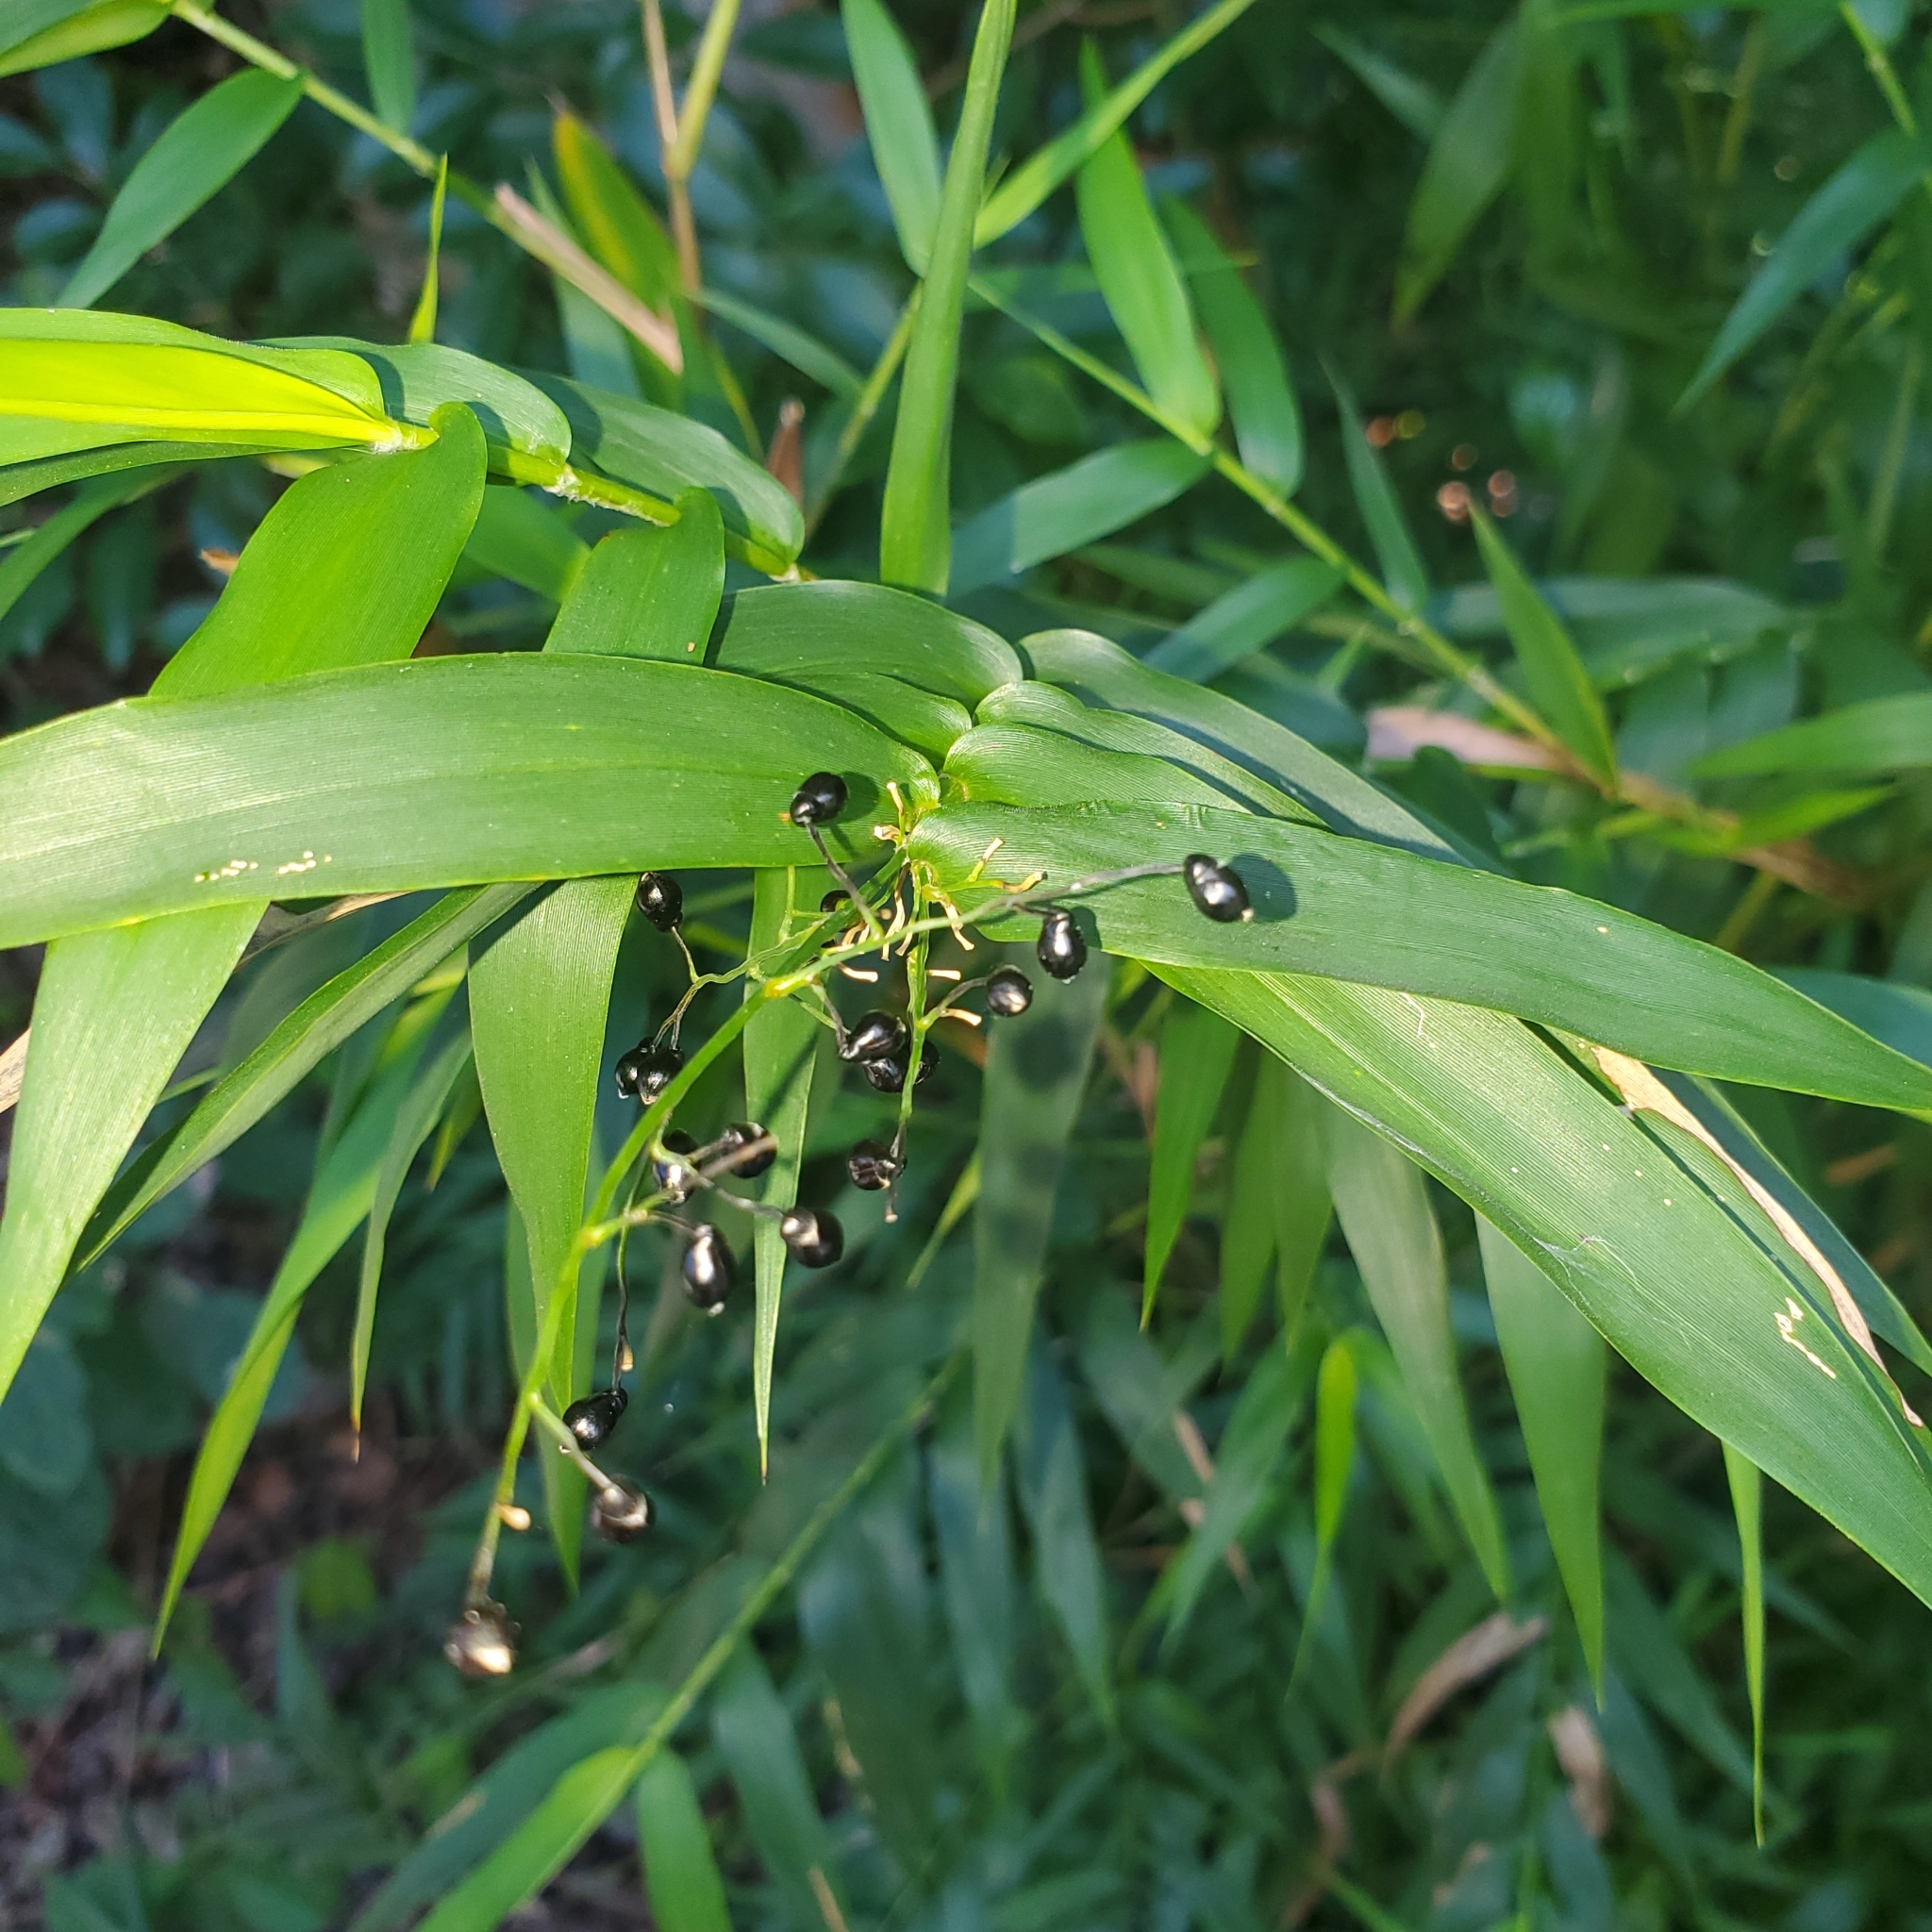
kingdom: Plantae
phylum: Tracheophyta
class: Liliopsida
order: Poales
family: Poaceae
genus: Lasiacis
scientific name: Lasiacis divaricata
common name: Smallcane
